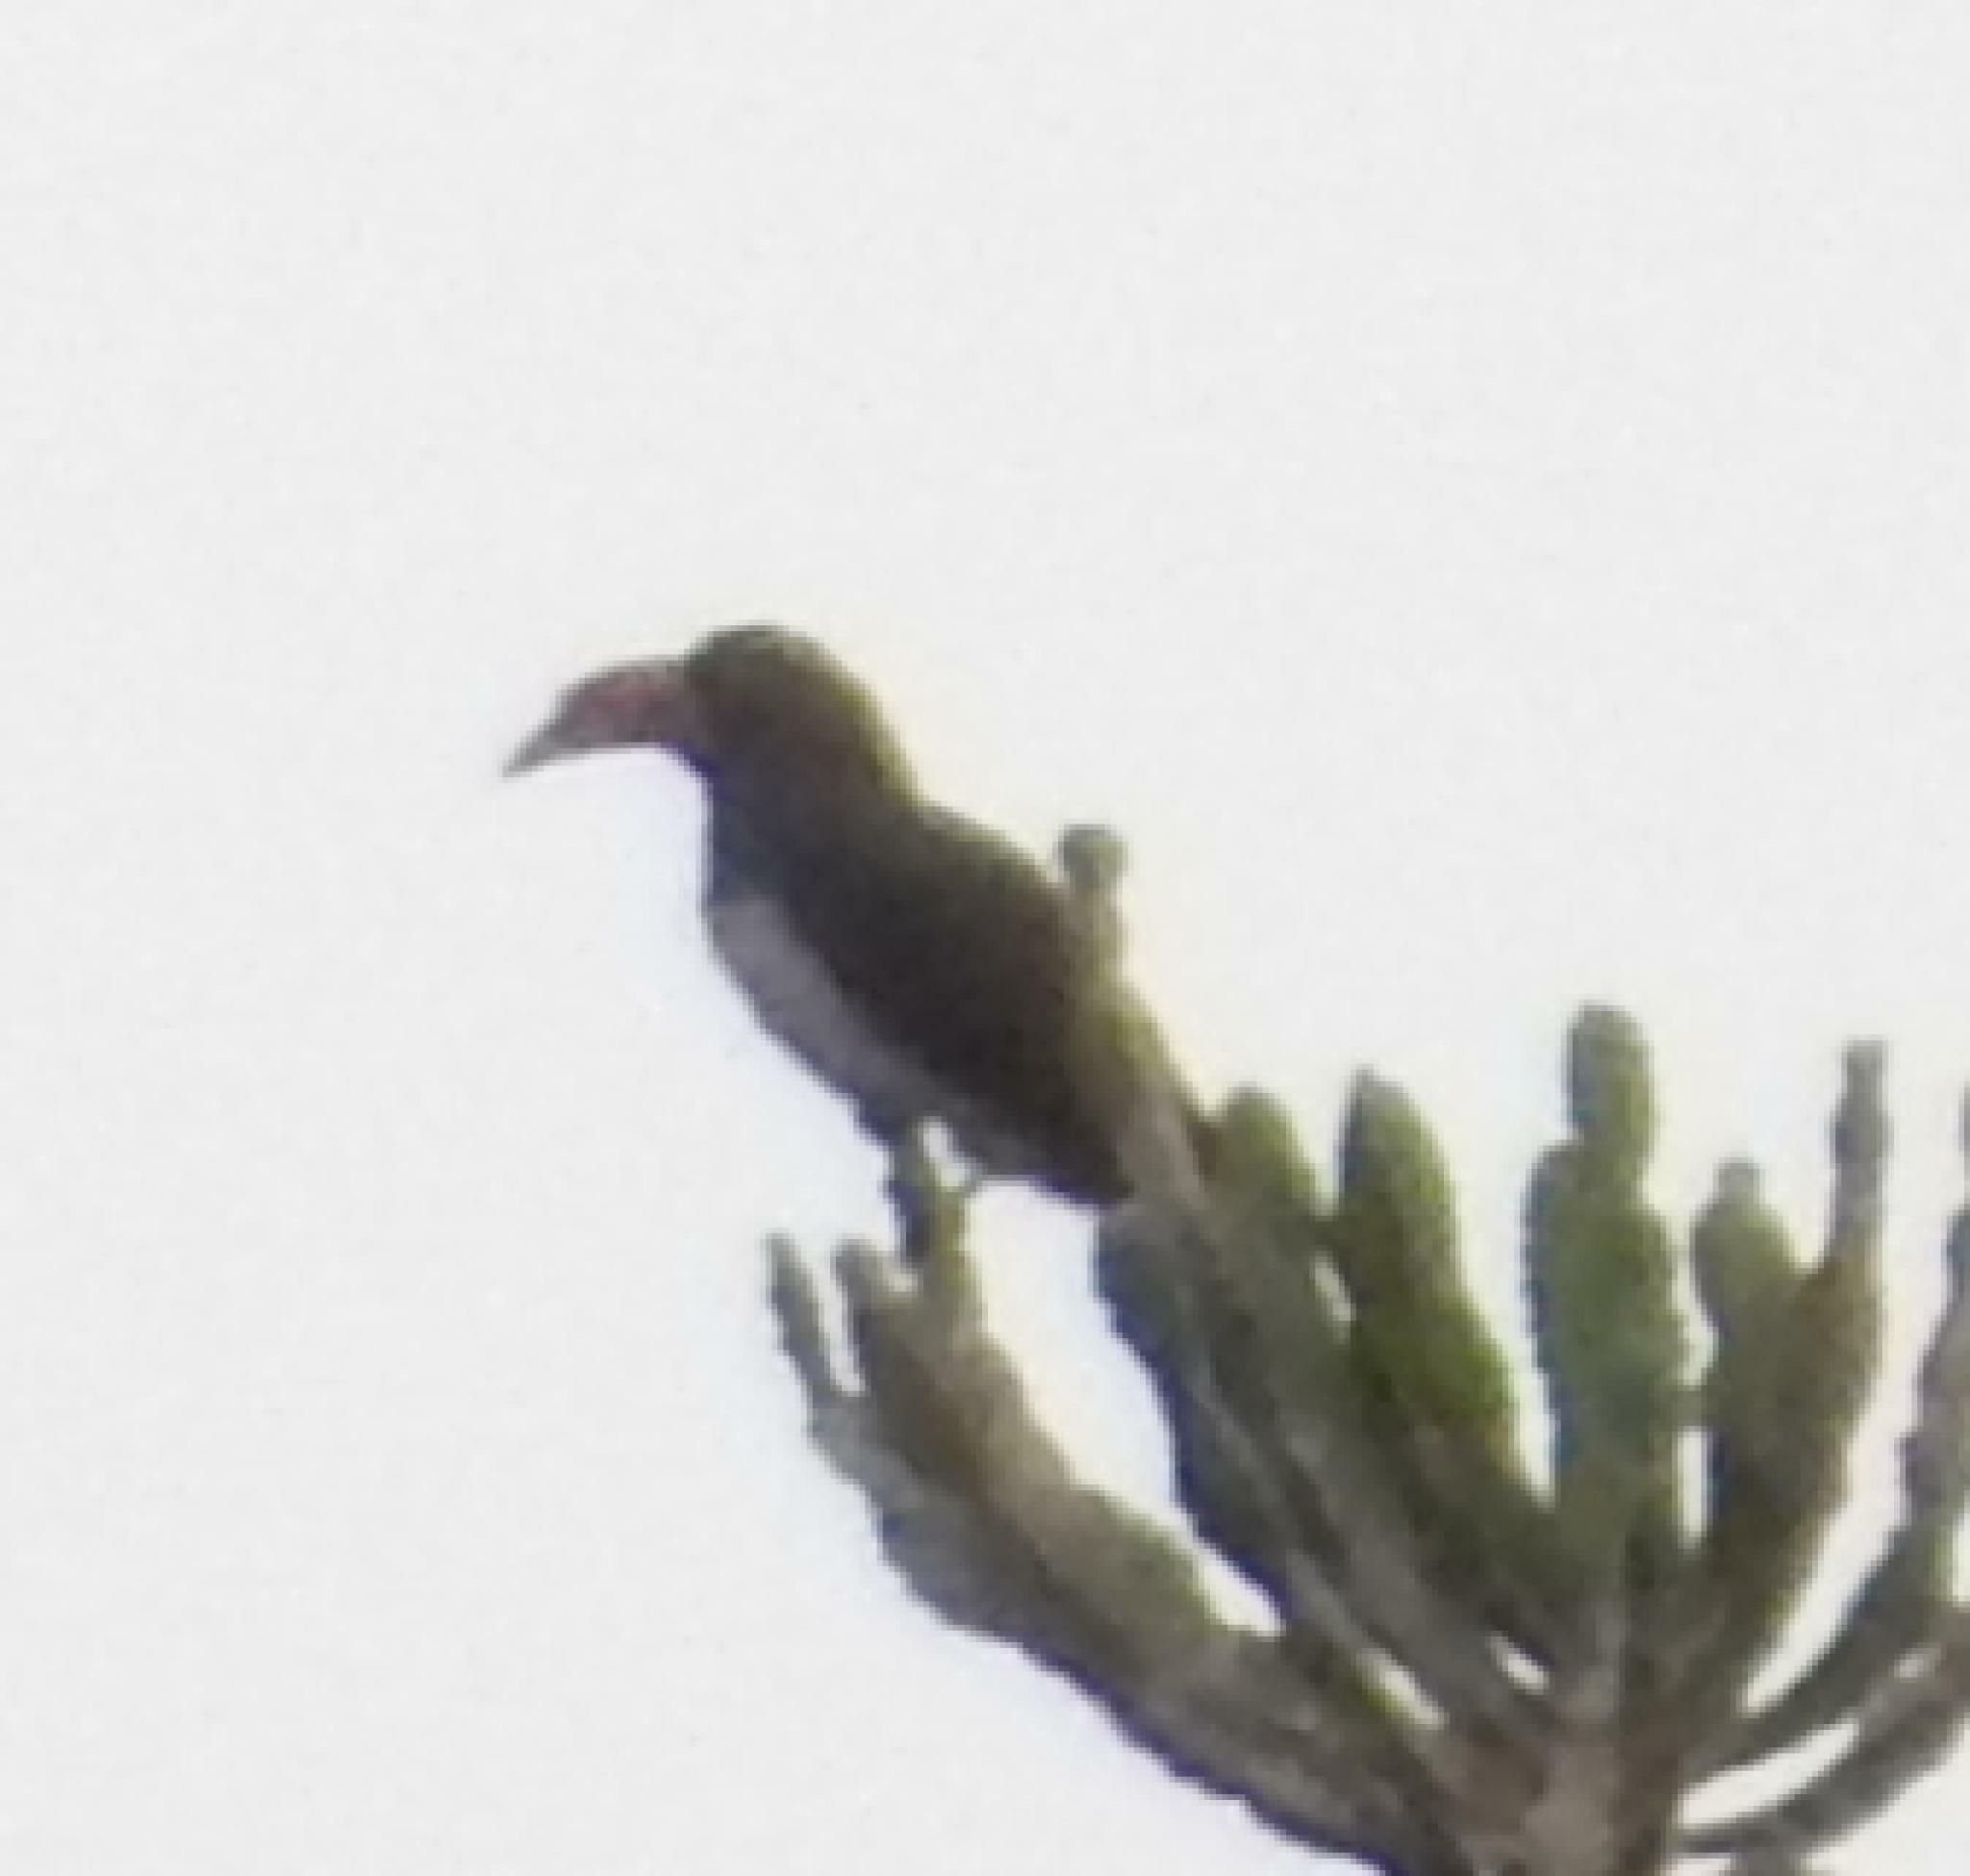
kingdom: Animalia
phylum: Chordata
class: Aves
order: Bucerotiformes
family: Bucerotidae
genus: Lophoceros
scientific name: Lophoceros alboterminatus
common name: Crowned hornbill
